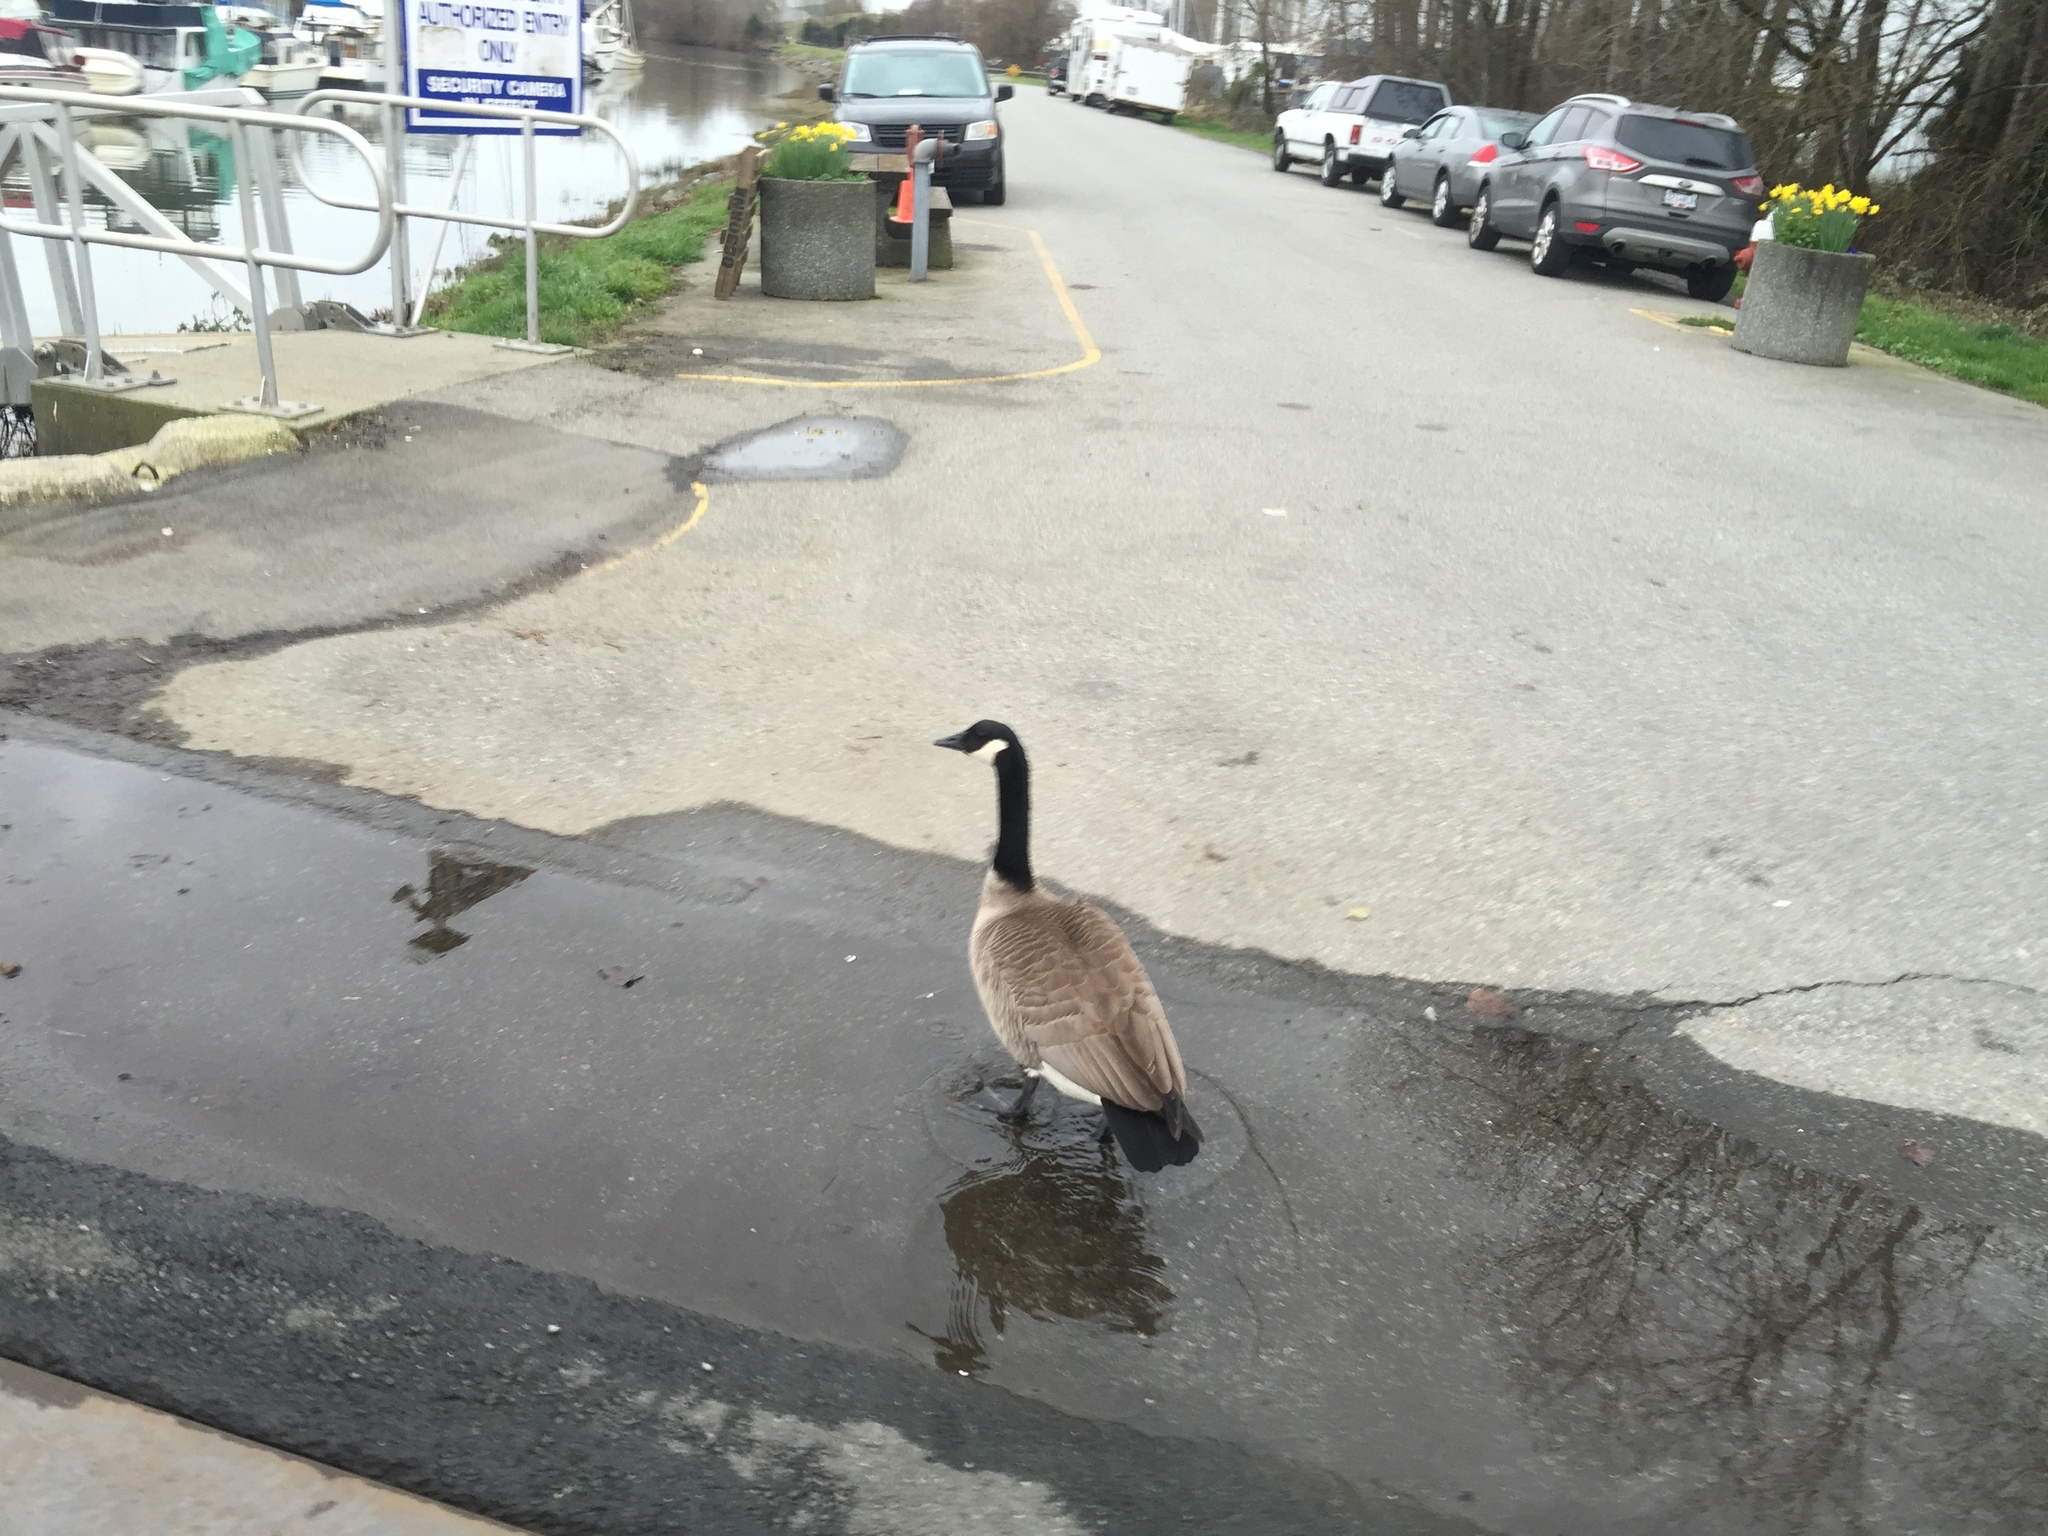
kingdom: Animalia
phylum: Chordata
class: Aves
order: Anseriformes
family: Anatidae
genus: Branta
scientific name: Branta canadensis
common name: Canada goose
